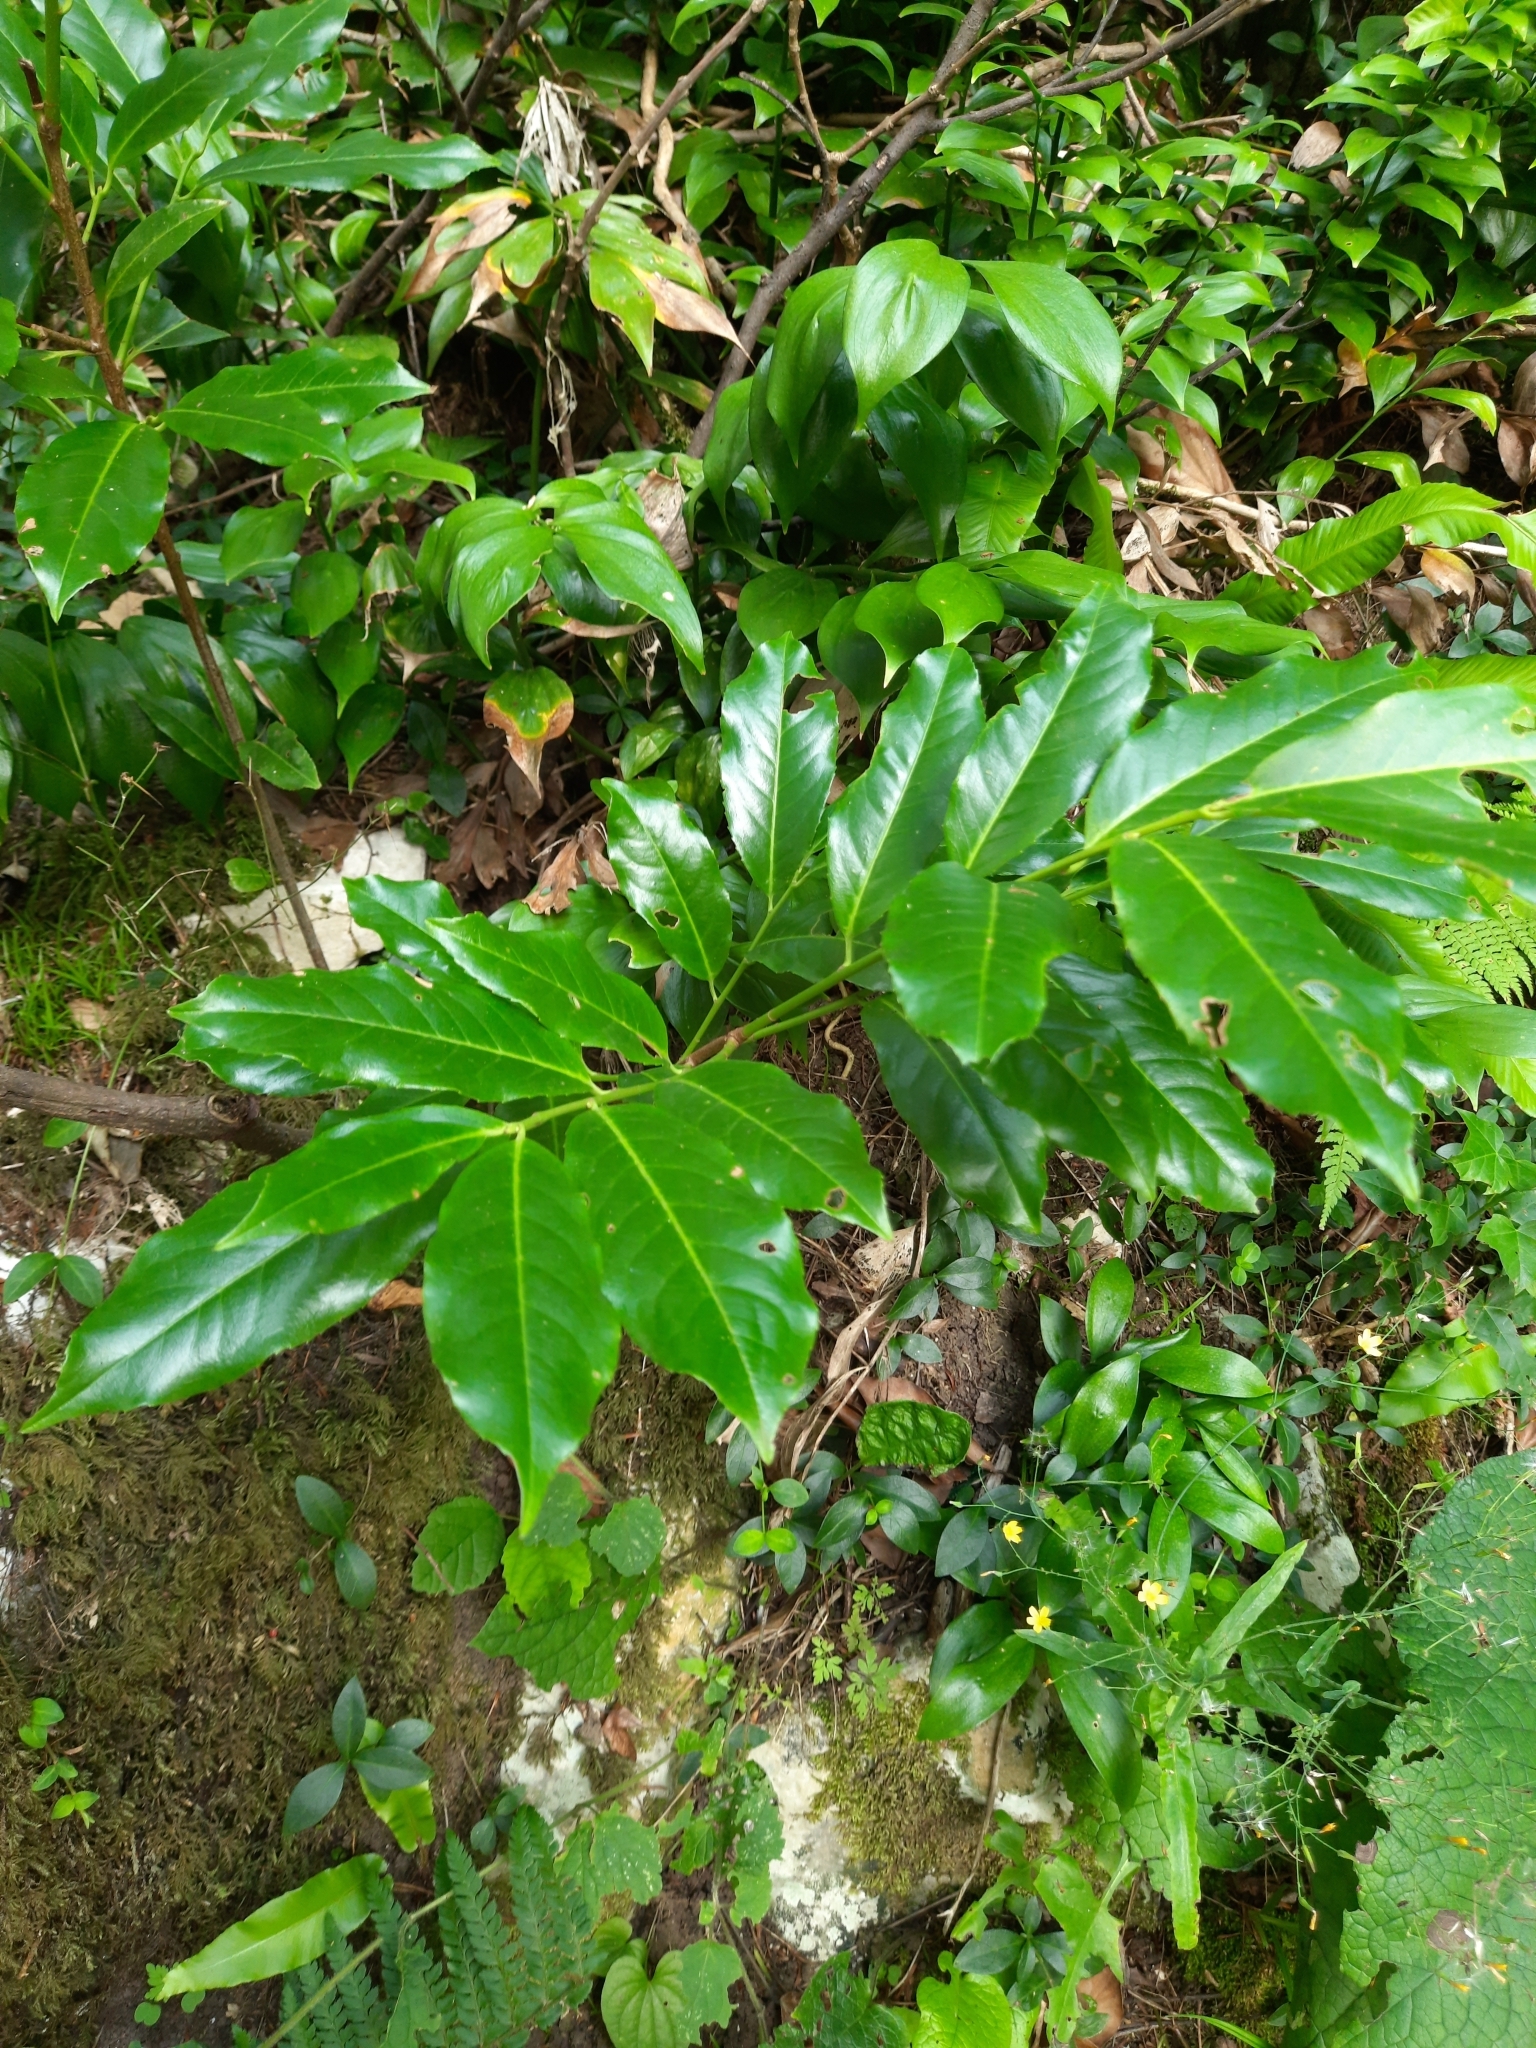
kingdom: Plantae
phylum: Tracheophyta
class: Magnoliopsida
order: Rosales
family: Rosaceae
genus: Prunus
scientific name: Prunus laurocerasus
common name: Cherry laurel
